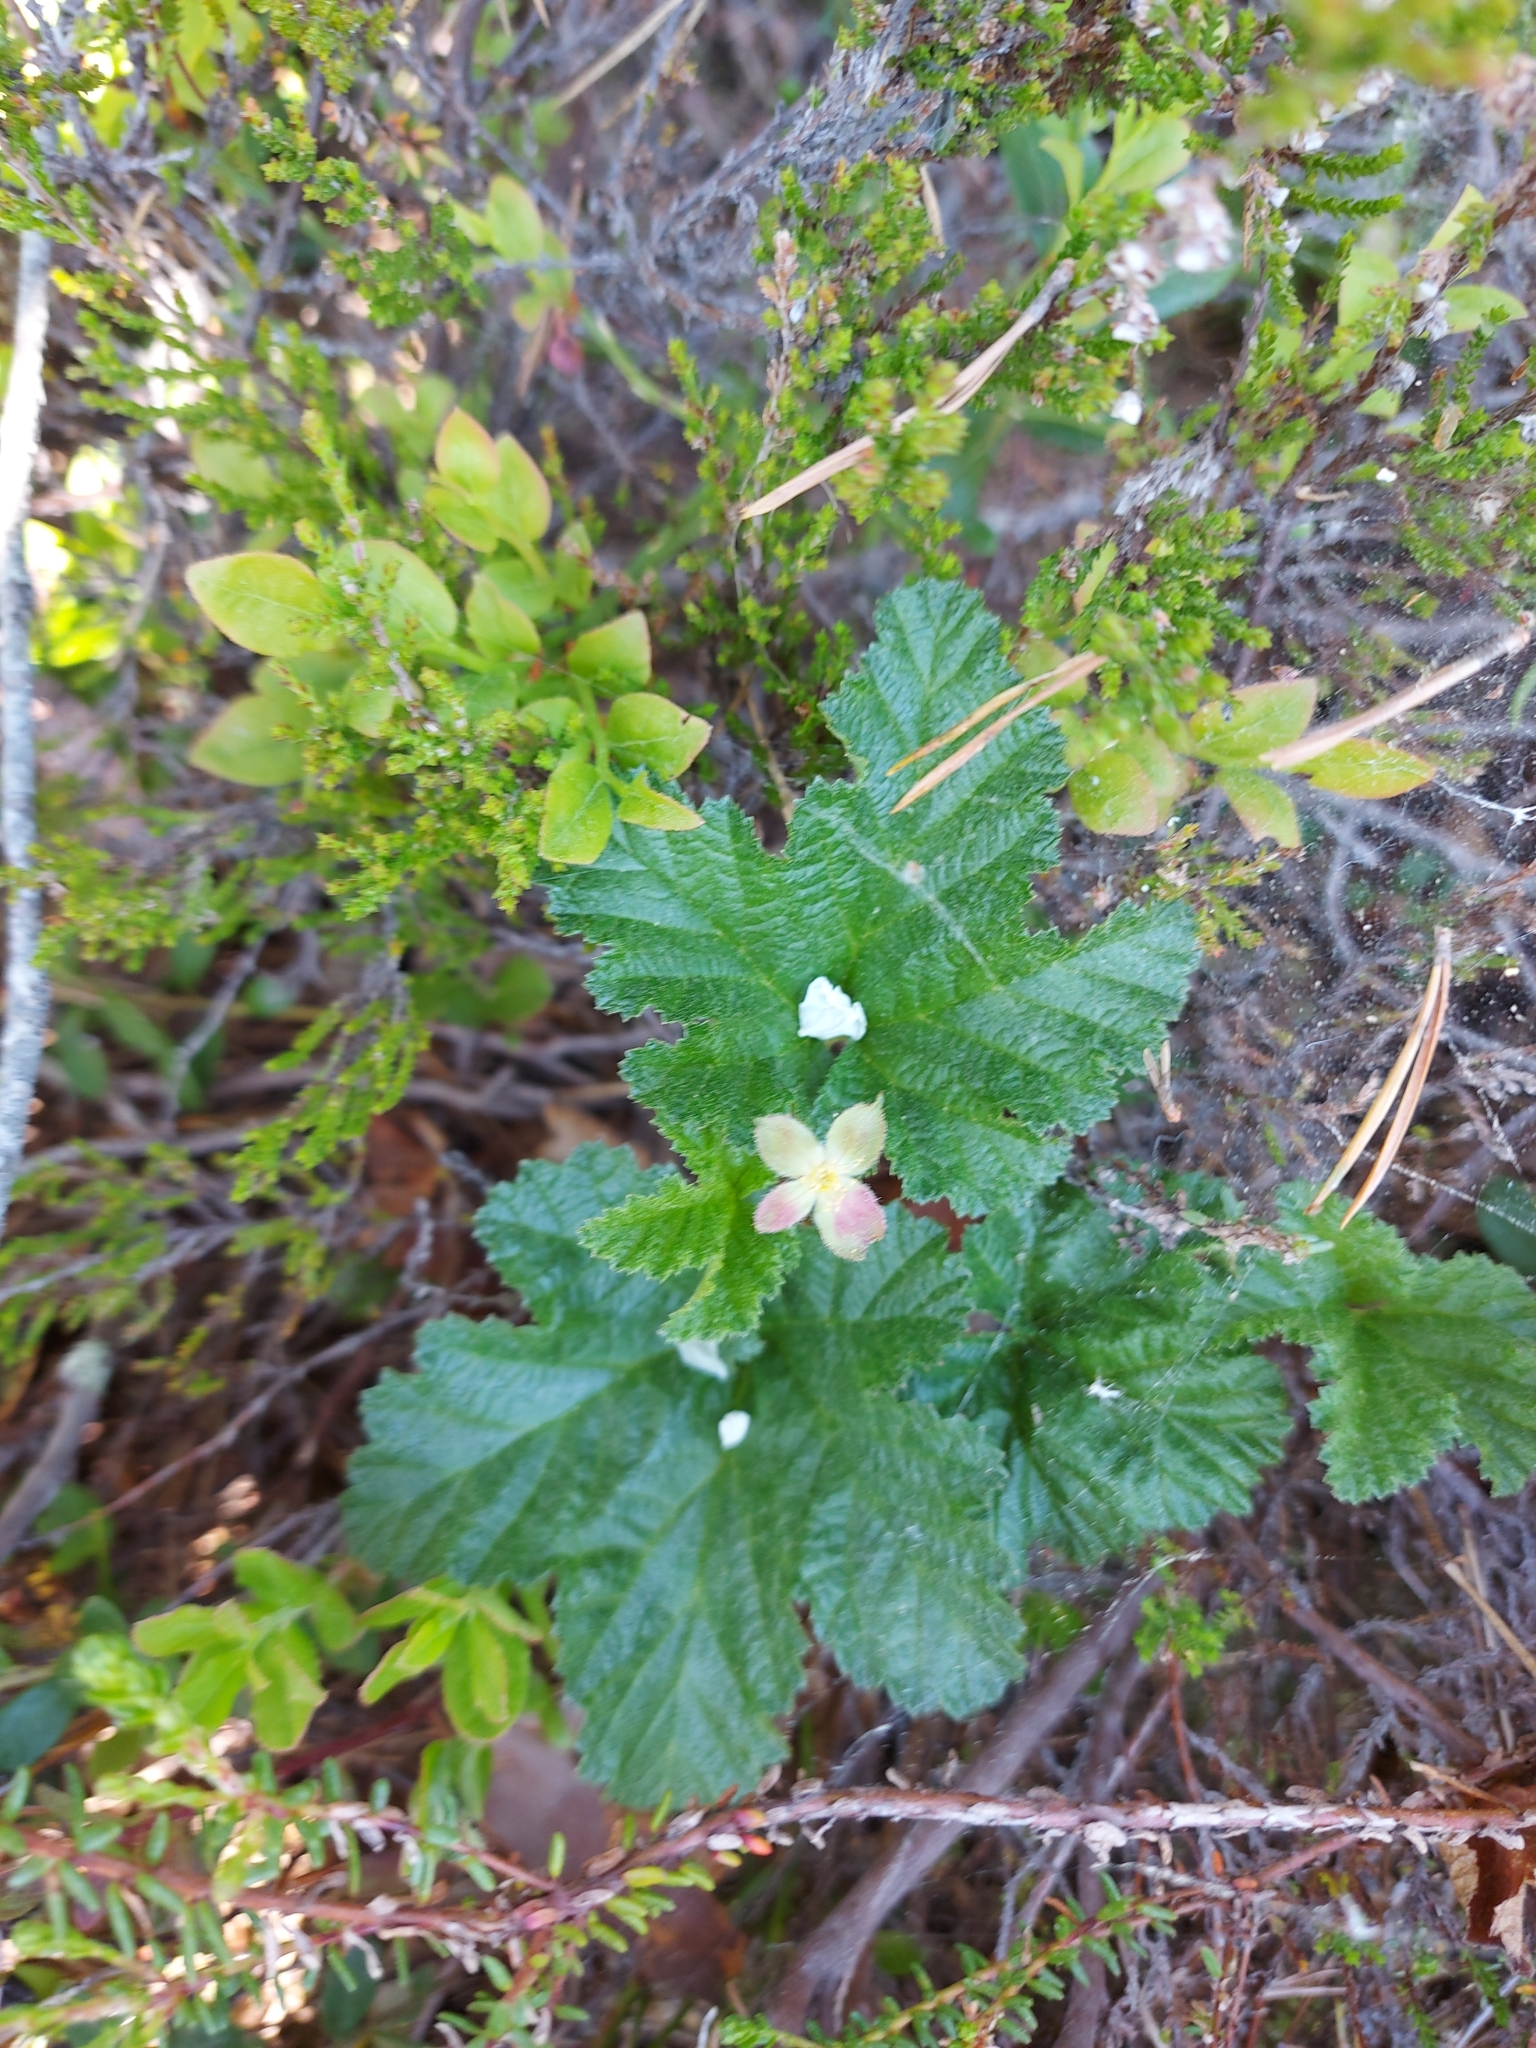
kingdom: Plantae
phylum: Tracheophyta
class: Magnoliopsida
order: Rosales
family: Rosaceae
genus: Rubus
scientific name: Rubus chamaemorus
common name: Cloudberry
